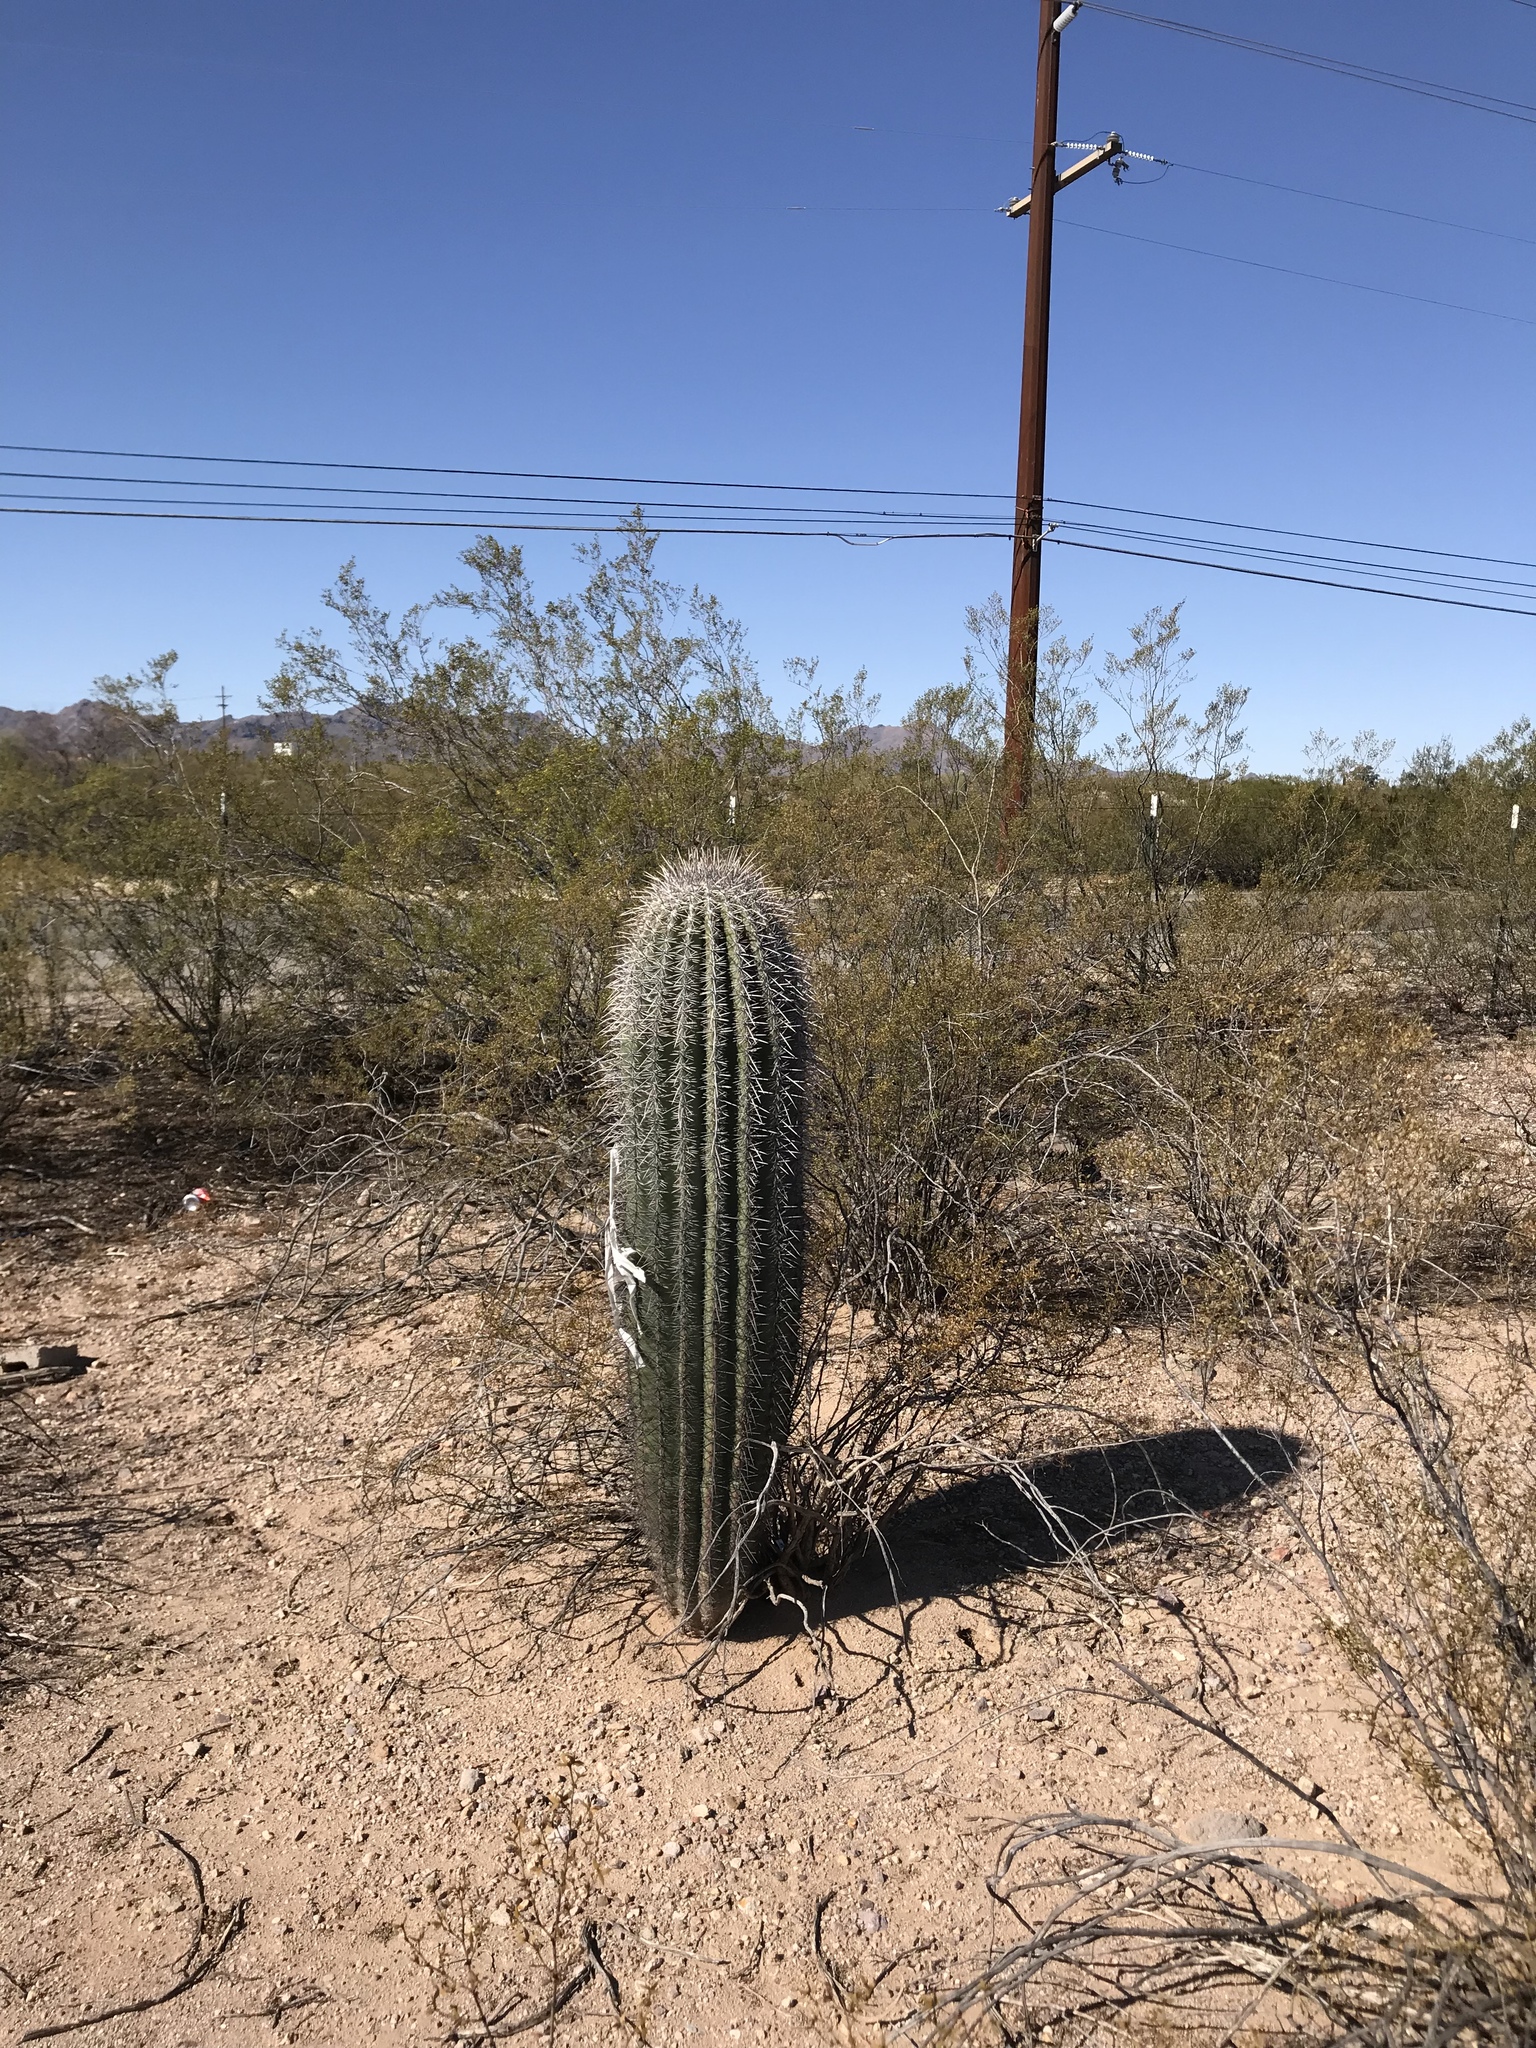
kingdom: Plantae
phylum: Tracheophyta
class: Magnoliopsida
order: Caryophyllales
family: Cactaceae
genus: Carnegiea
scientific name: Carnegiea gigantea
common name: Saguaro
